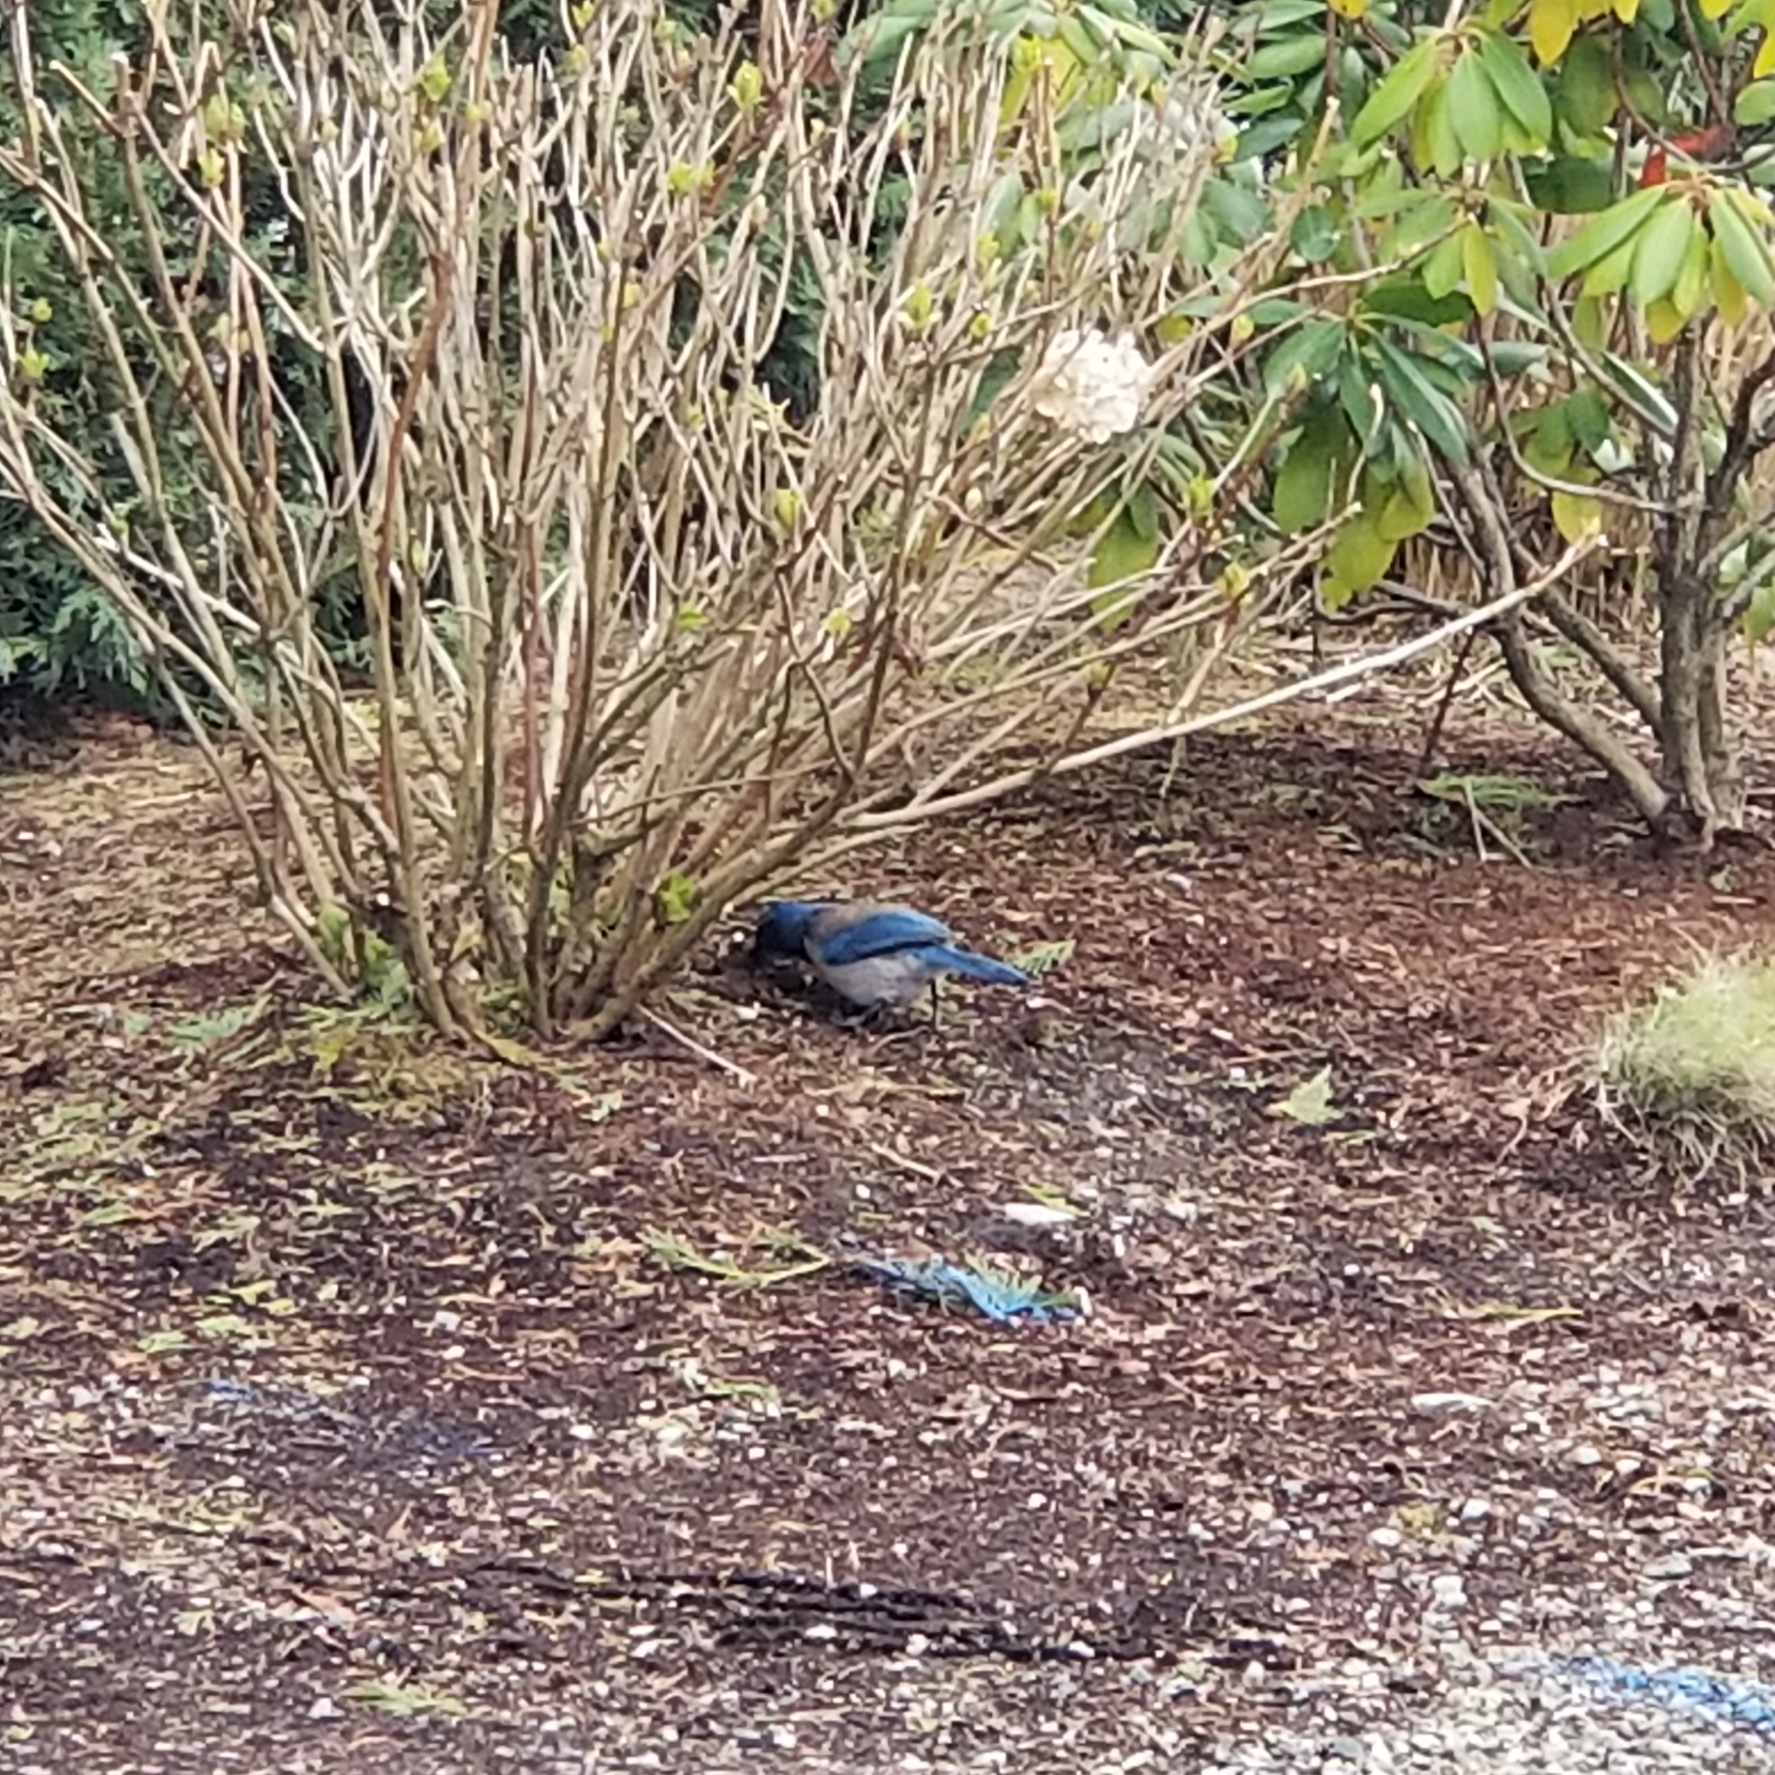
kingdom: Animalia
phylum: Chordata
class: Aves
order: Passeriformes
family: Corvidae
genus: Aphelocoma
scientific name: Aphelocoma californica
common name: California scrub-jay
